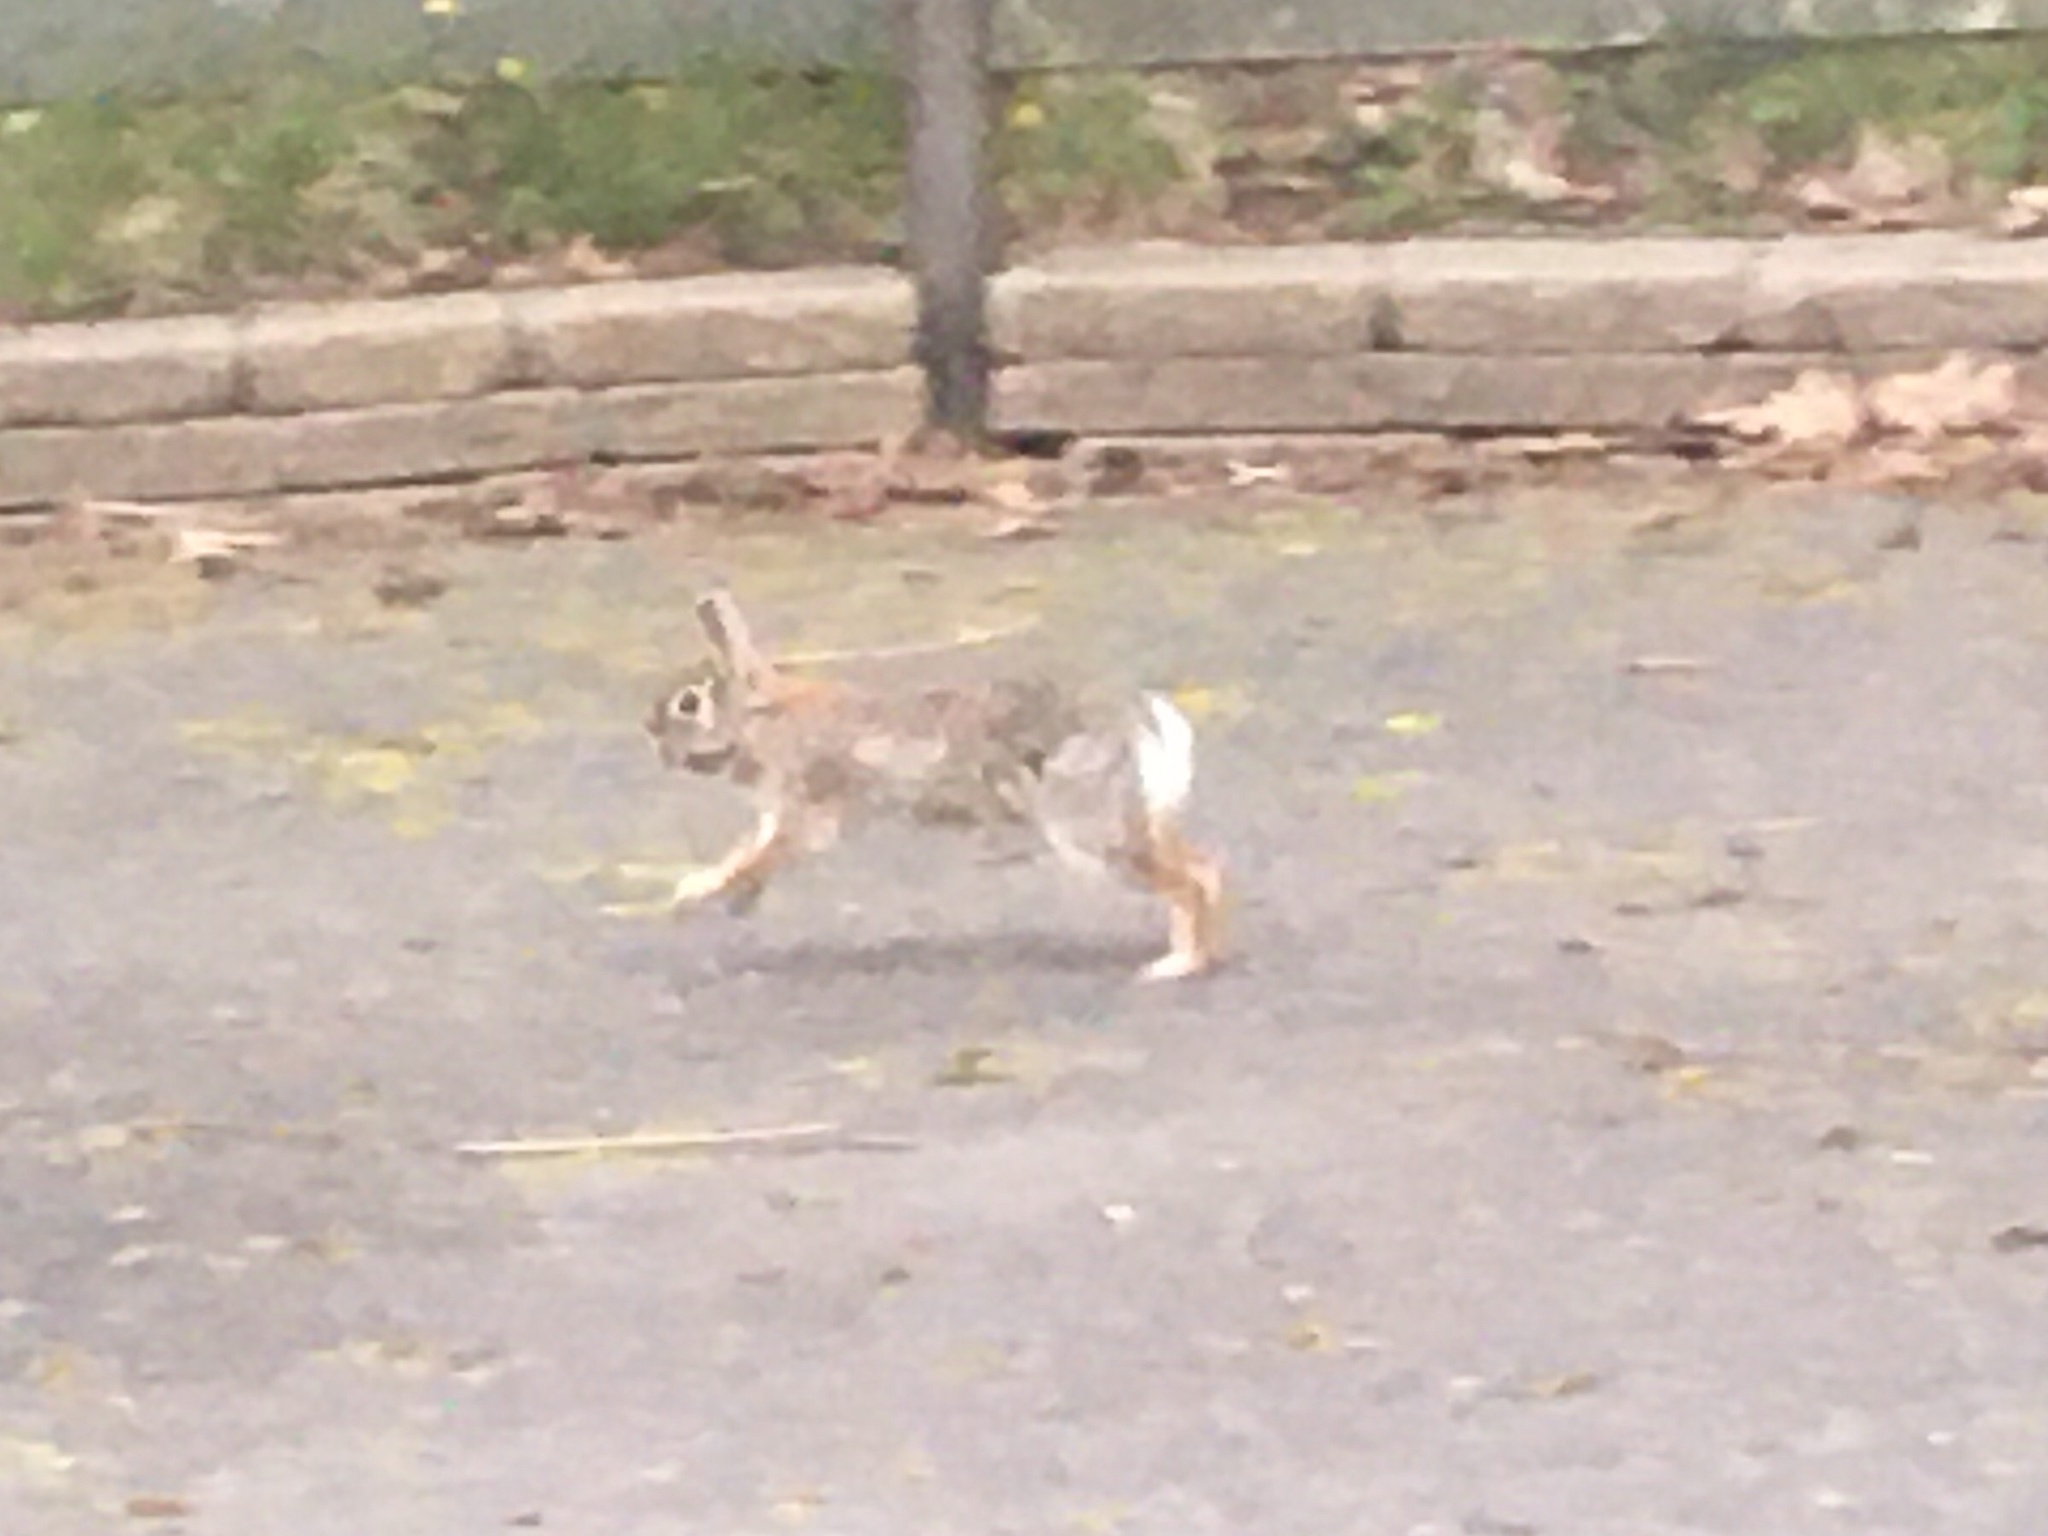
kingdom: Animalia
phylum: Chordata
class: Mammalia
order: Lagomorpha
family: Leporidae
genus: Sylvilagus
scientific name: Sylvilagus floridanus
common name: Eastern cottontail
